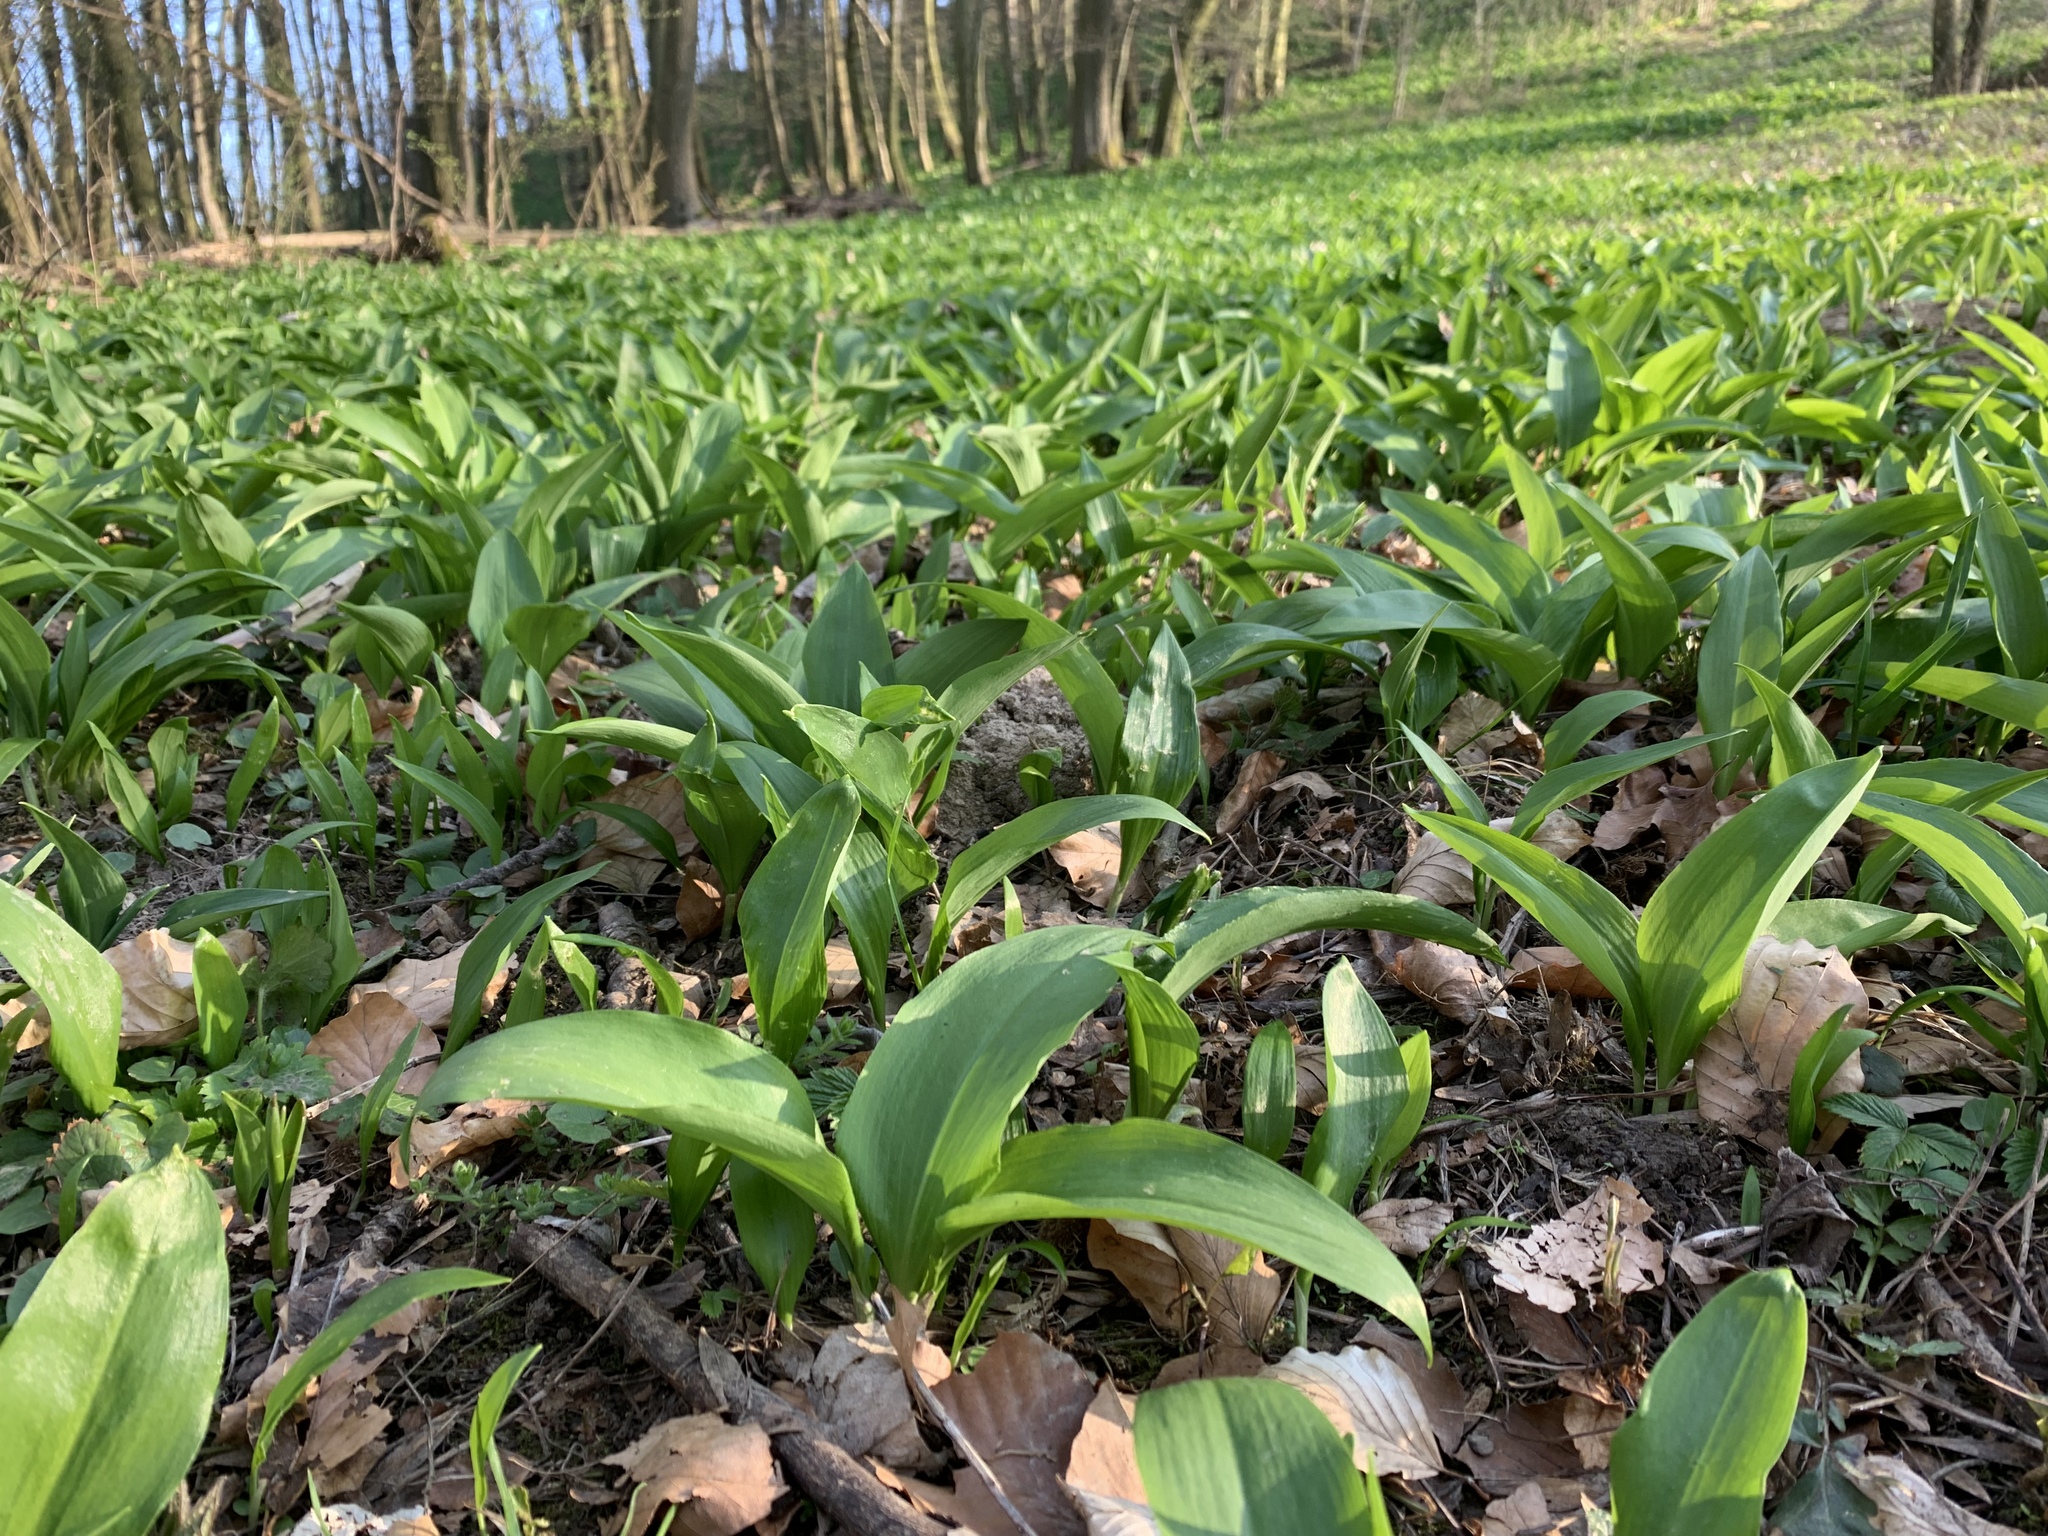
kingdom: Plantae
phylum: Tracheophyta
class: Liliopsida
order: Asparagales
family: Amaryllidaceae
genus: Allium
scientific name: Allium ursinum
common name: Ramsons
